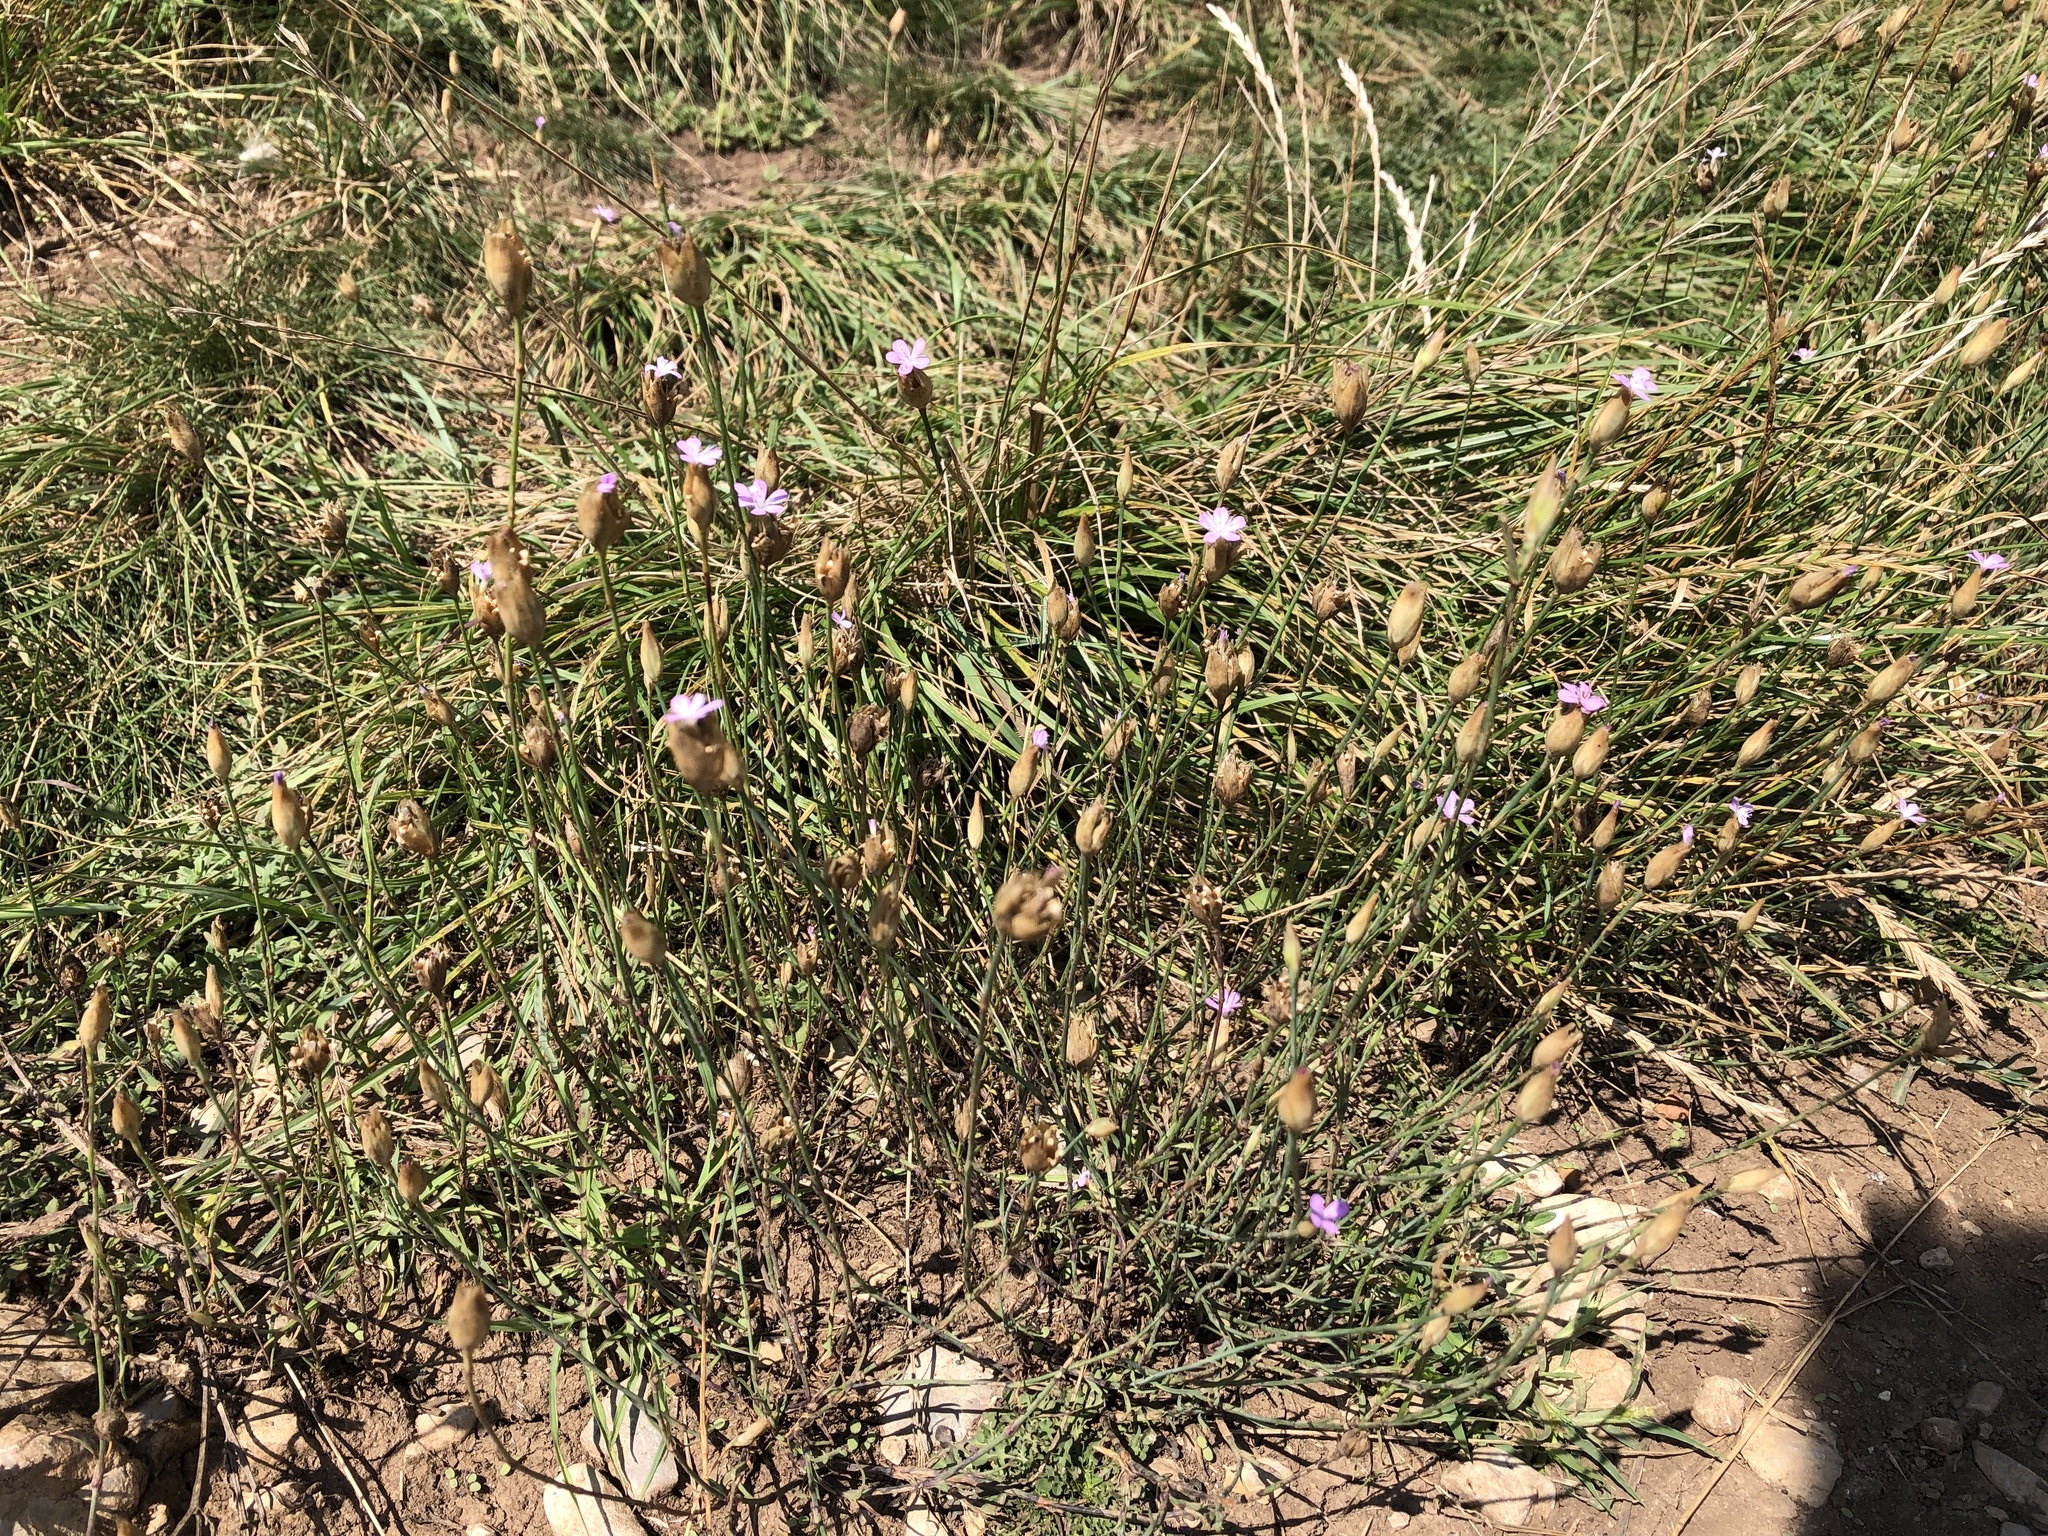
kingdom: Plantae
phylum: Tracheophyta
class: Magnoliopsida
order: Caryophyllales
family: Caryophyllaceae
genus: Petrorhagia
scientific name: Petrorhagia prolifera
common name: Proliferous pink
